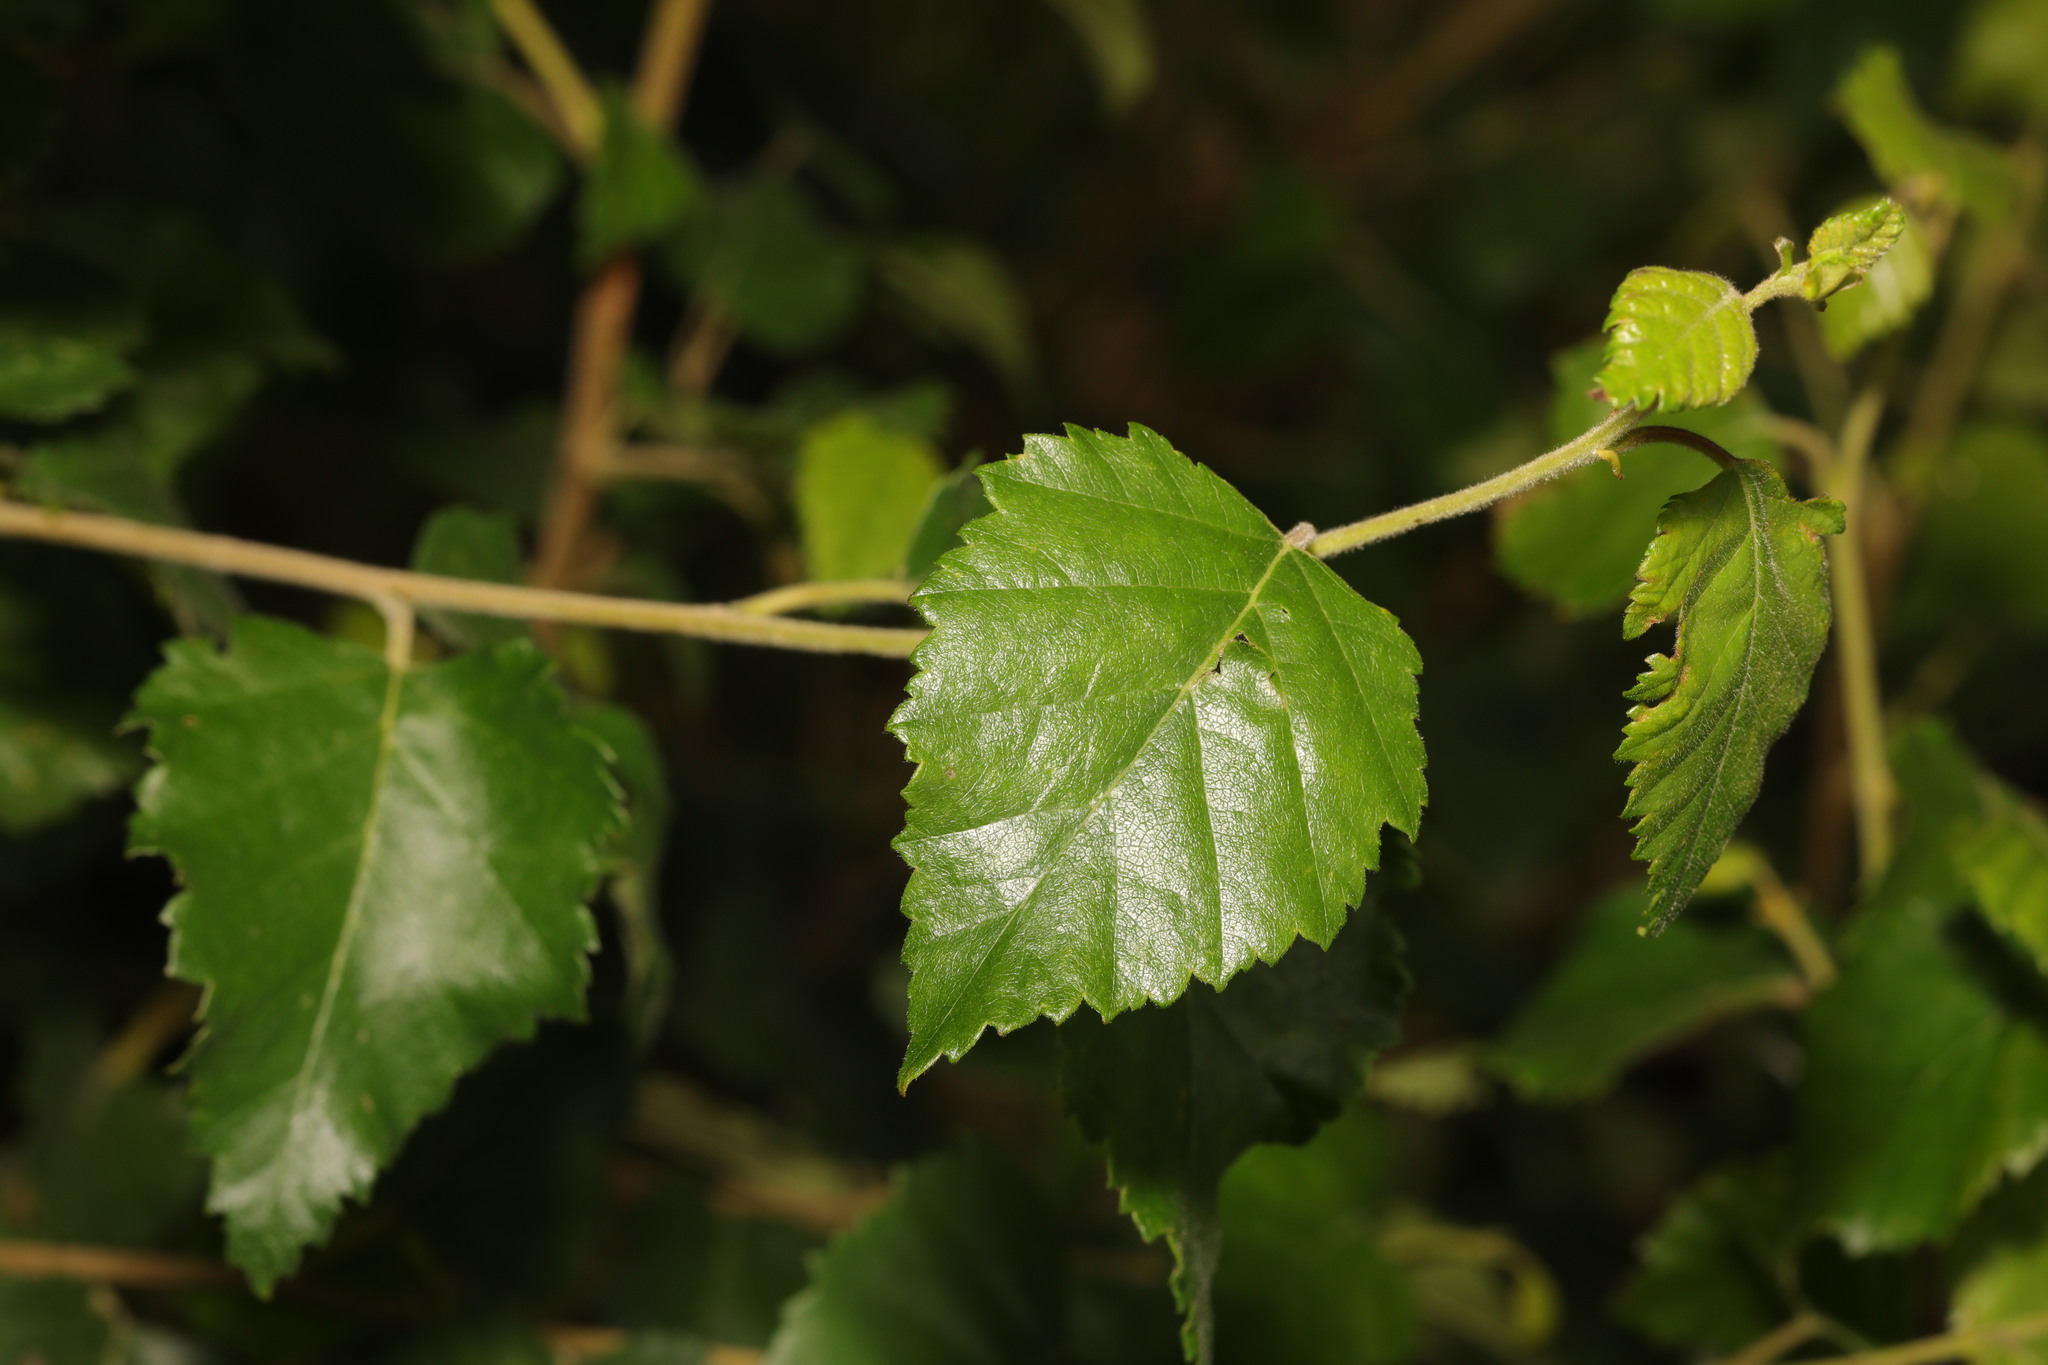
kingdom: Plantae
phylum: Tracheophyta
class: Magnoliopsida
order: Fagales
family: Betulaceae
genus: Betula
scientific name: Betula pendula
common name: Silver birch
